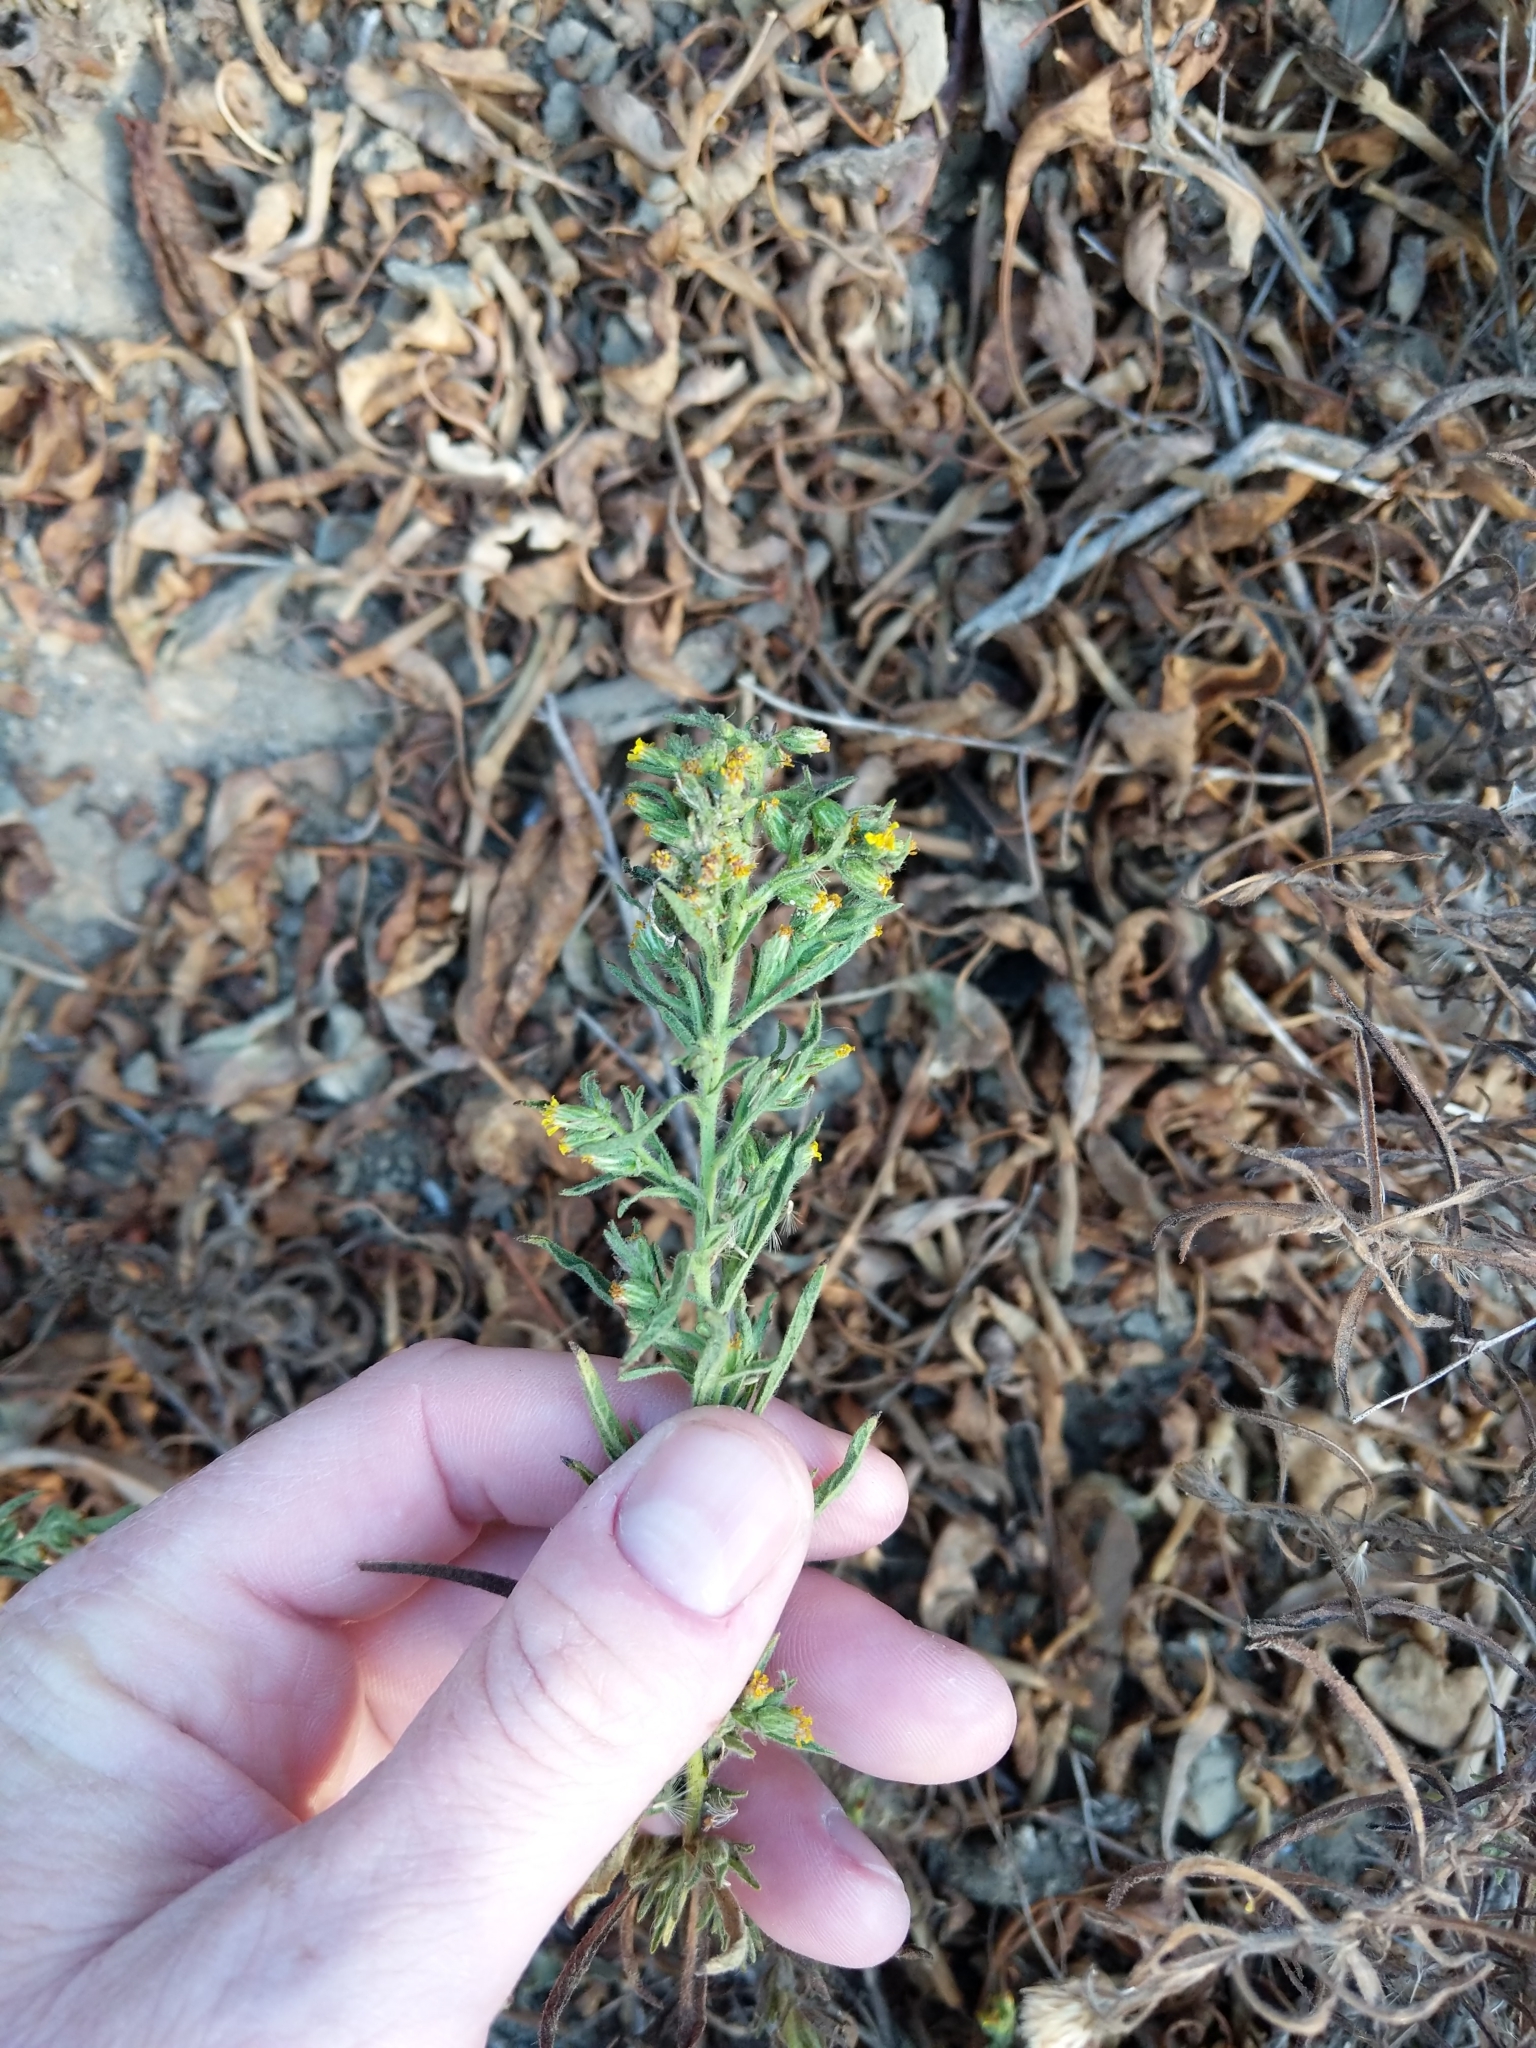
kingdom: Plantae
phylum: Tracheophyta
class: Magnoliopsida
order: Asterales
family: Asteraceae
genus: Dittrichia
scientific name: Dittrichia graveolens
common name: Stinking fleabane
